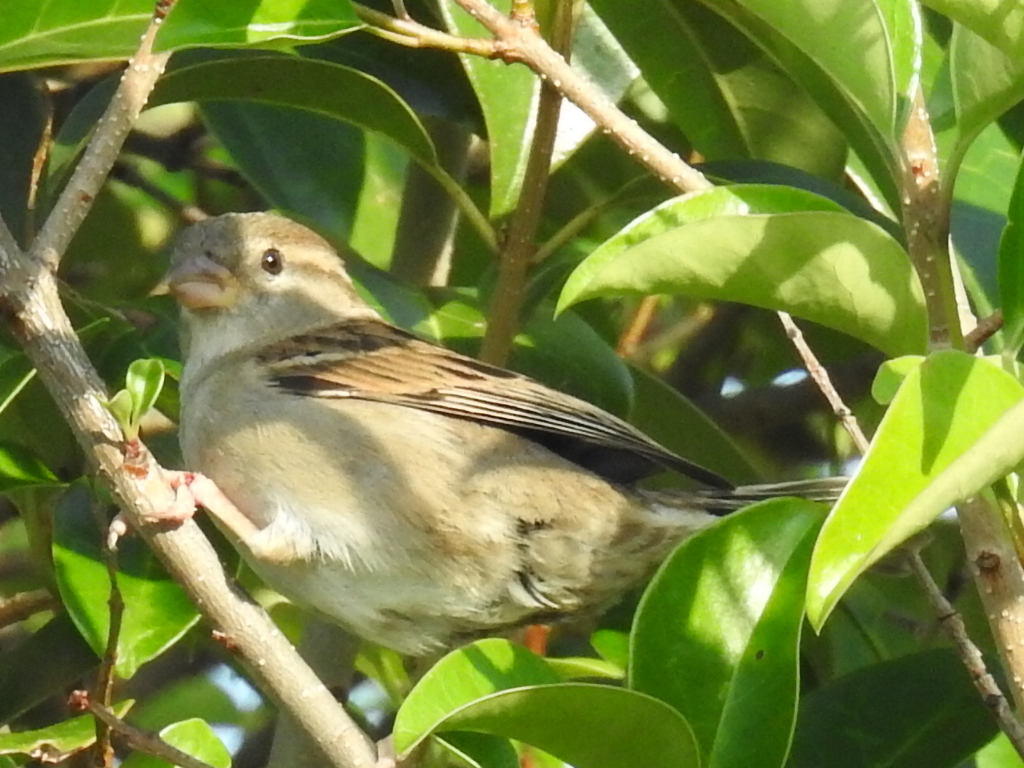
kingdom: Animalia
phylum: Chordata
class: Aves
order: Passeriformes
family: Passeridae
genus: Passer
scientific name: Passer domesticus
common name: House sparrow
